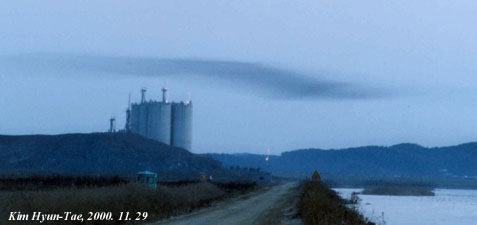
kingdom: Animalia
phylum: Chordata
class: Aves
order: Anseriformes
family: Anatidae
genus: Sibirionetta
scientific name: Sibirionetta formosa
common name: Baikal teal
